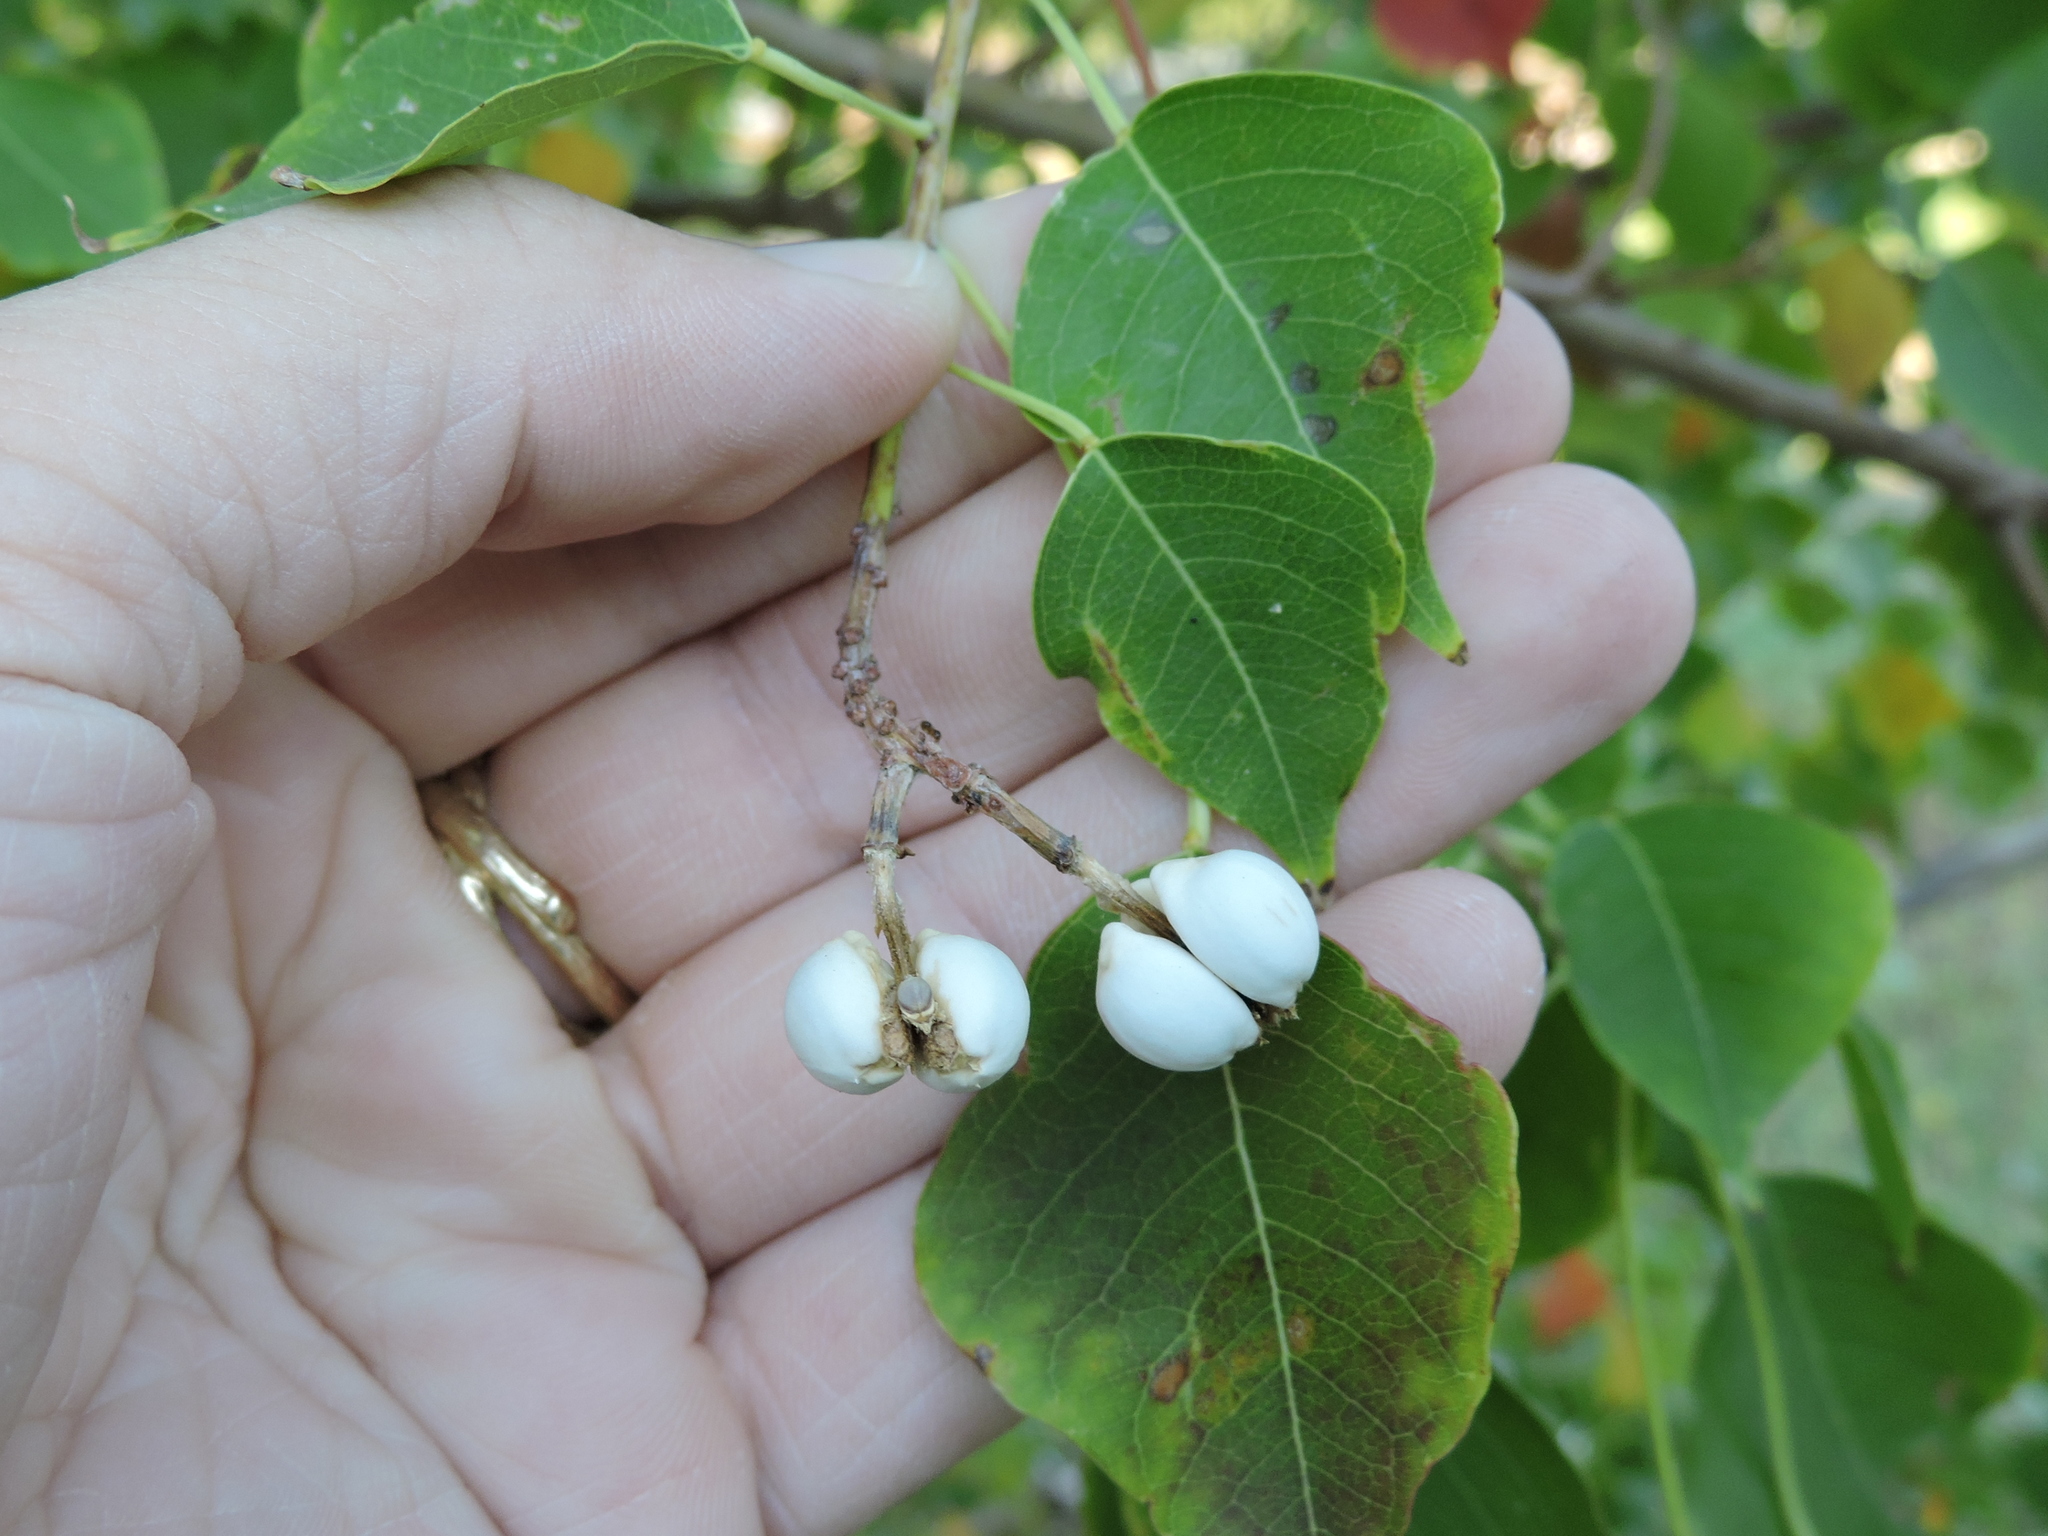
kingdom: Plantae
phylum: Tracheophyta
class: Magnoliopsida
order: Malpighiales
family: Euphorbiaceae
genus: Triadica
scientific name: Triadica sebifera
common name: Chinese tallow
